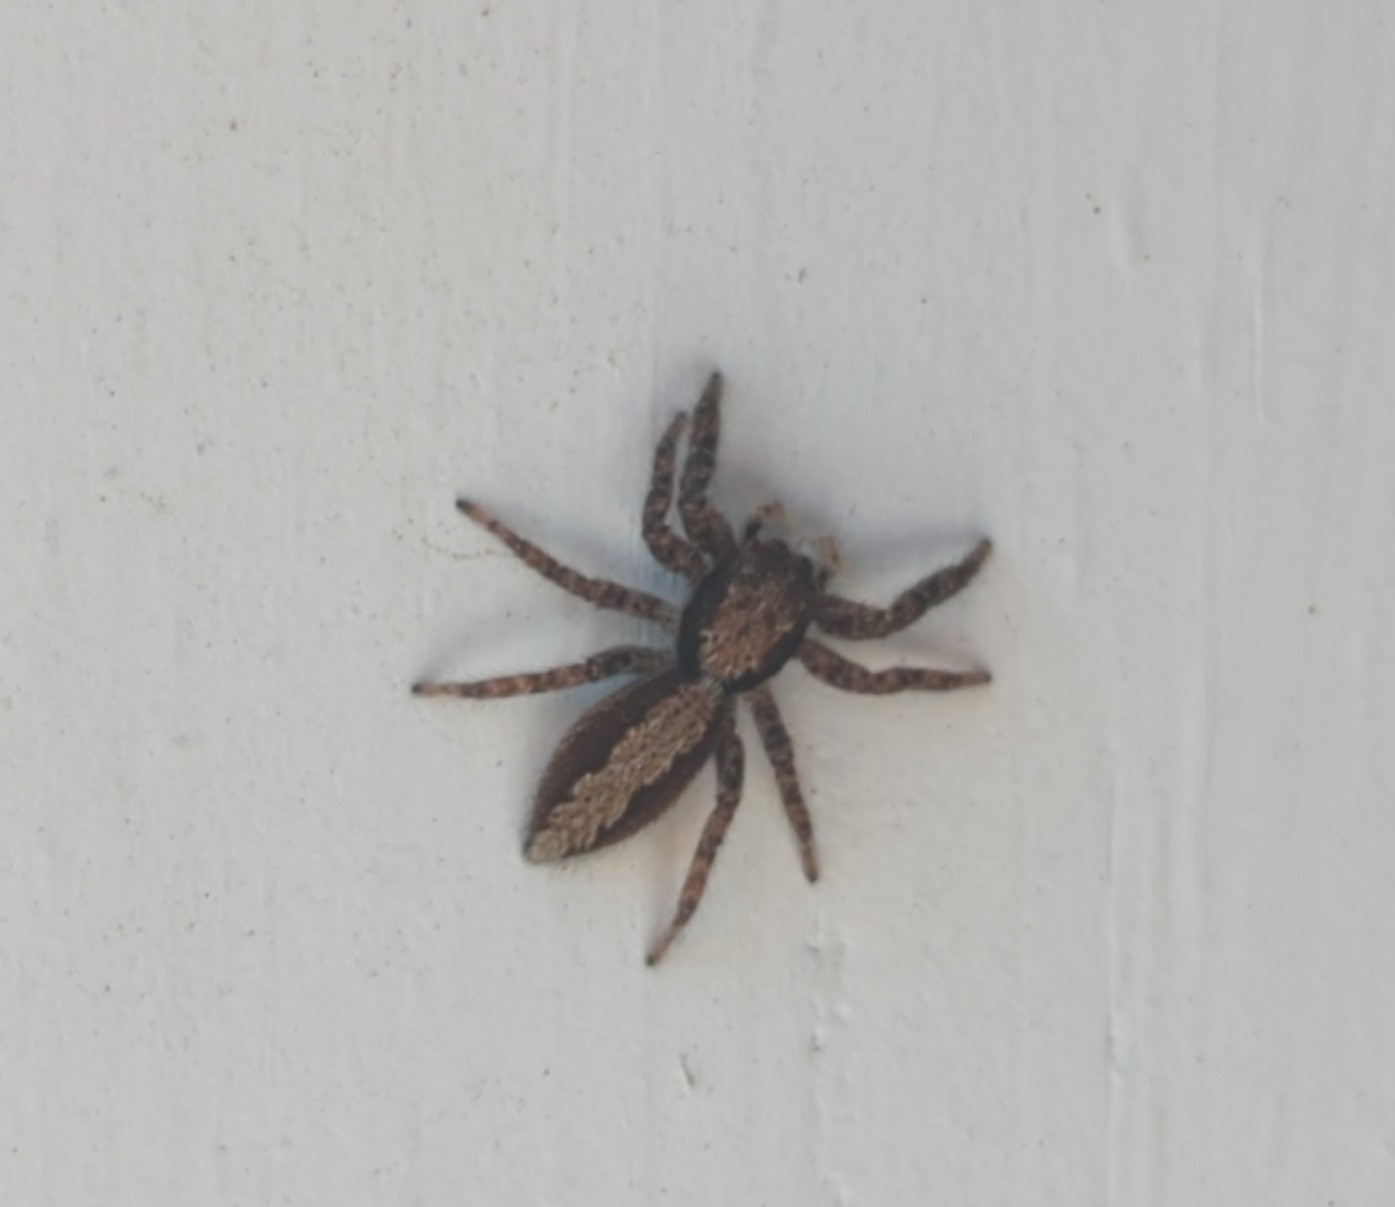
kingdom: Animalia
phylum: Arthropoda
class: Arachnida
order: Araneae
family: Salticidae
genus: Platycryptus
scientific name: Platycryptus californicus
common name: Jumping spiders
